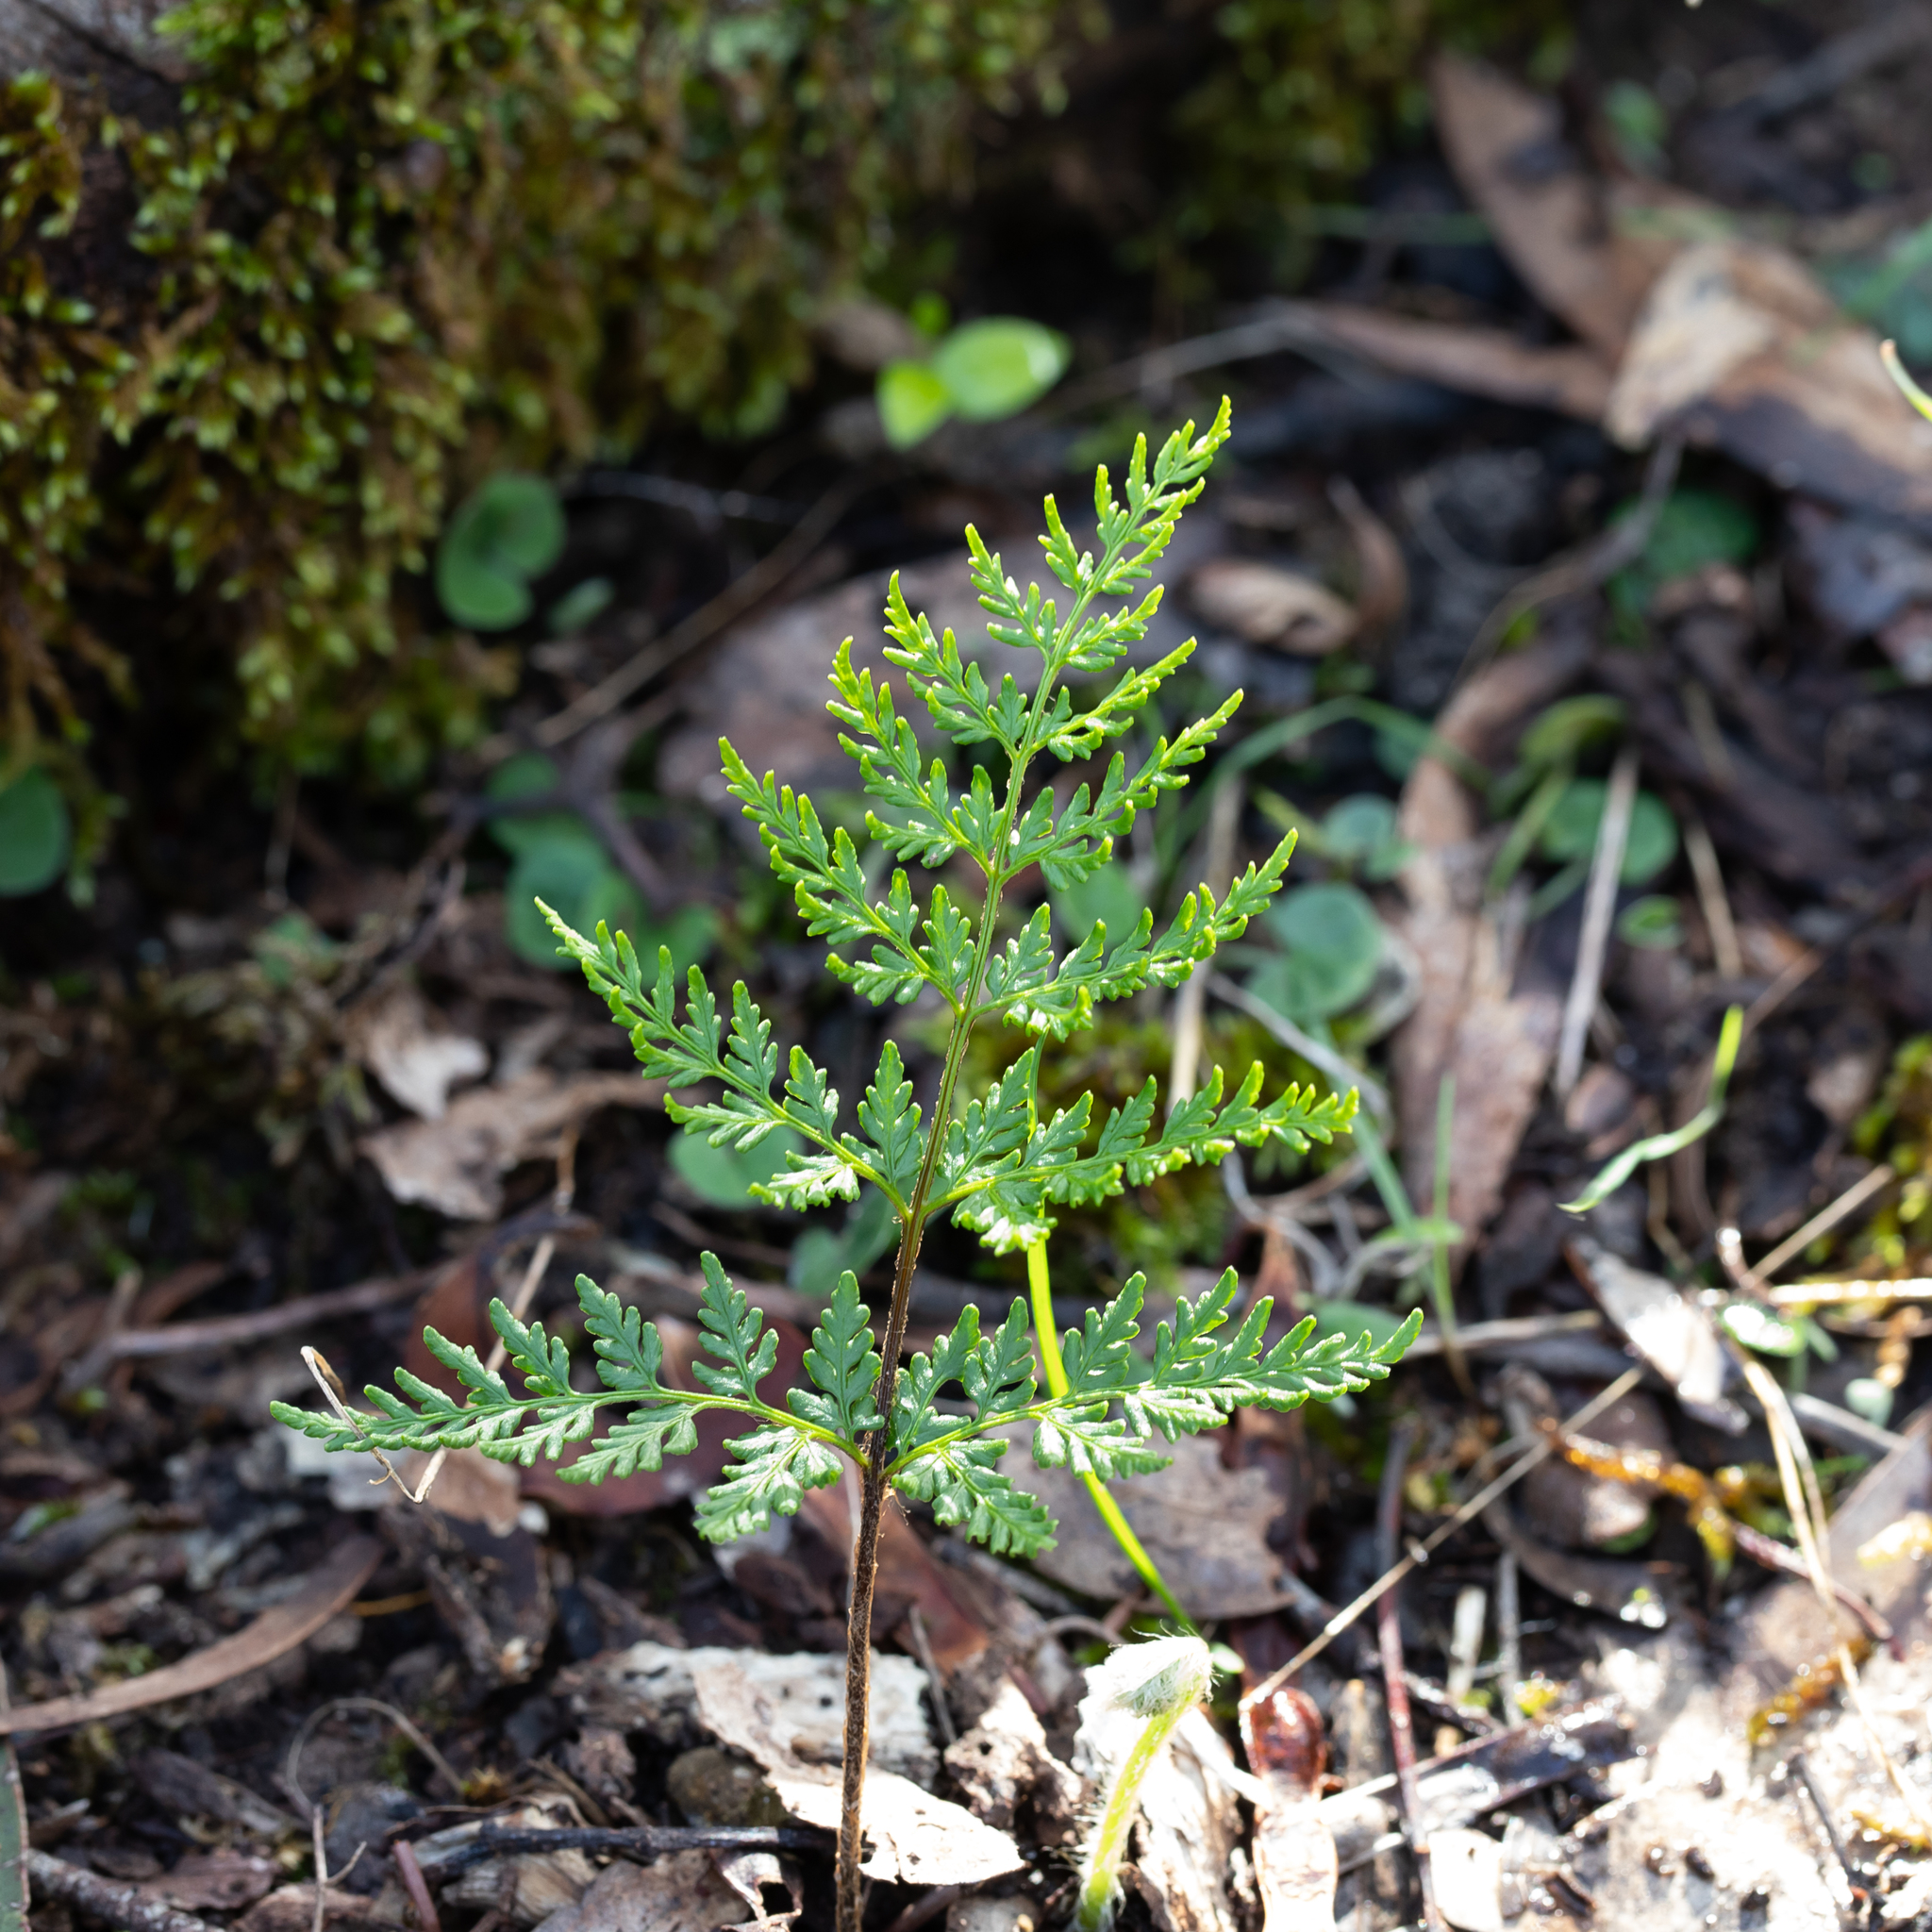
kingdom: Plantae
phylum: Tracheophyta
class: Polypodiopsida
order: Polypodiales
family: Pteridaceae
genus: Cheilanthes
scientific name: Cheilanthes austrotenuifolia
